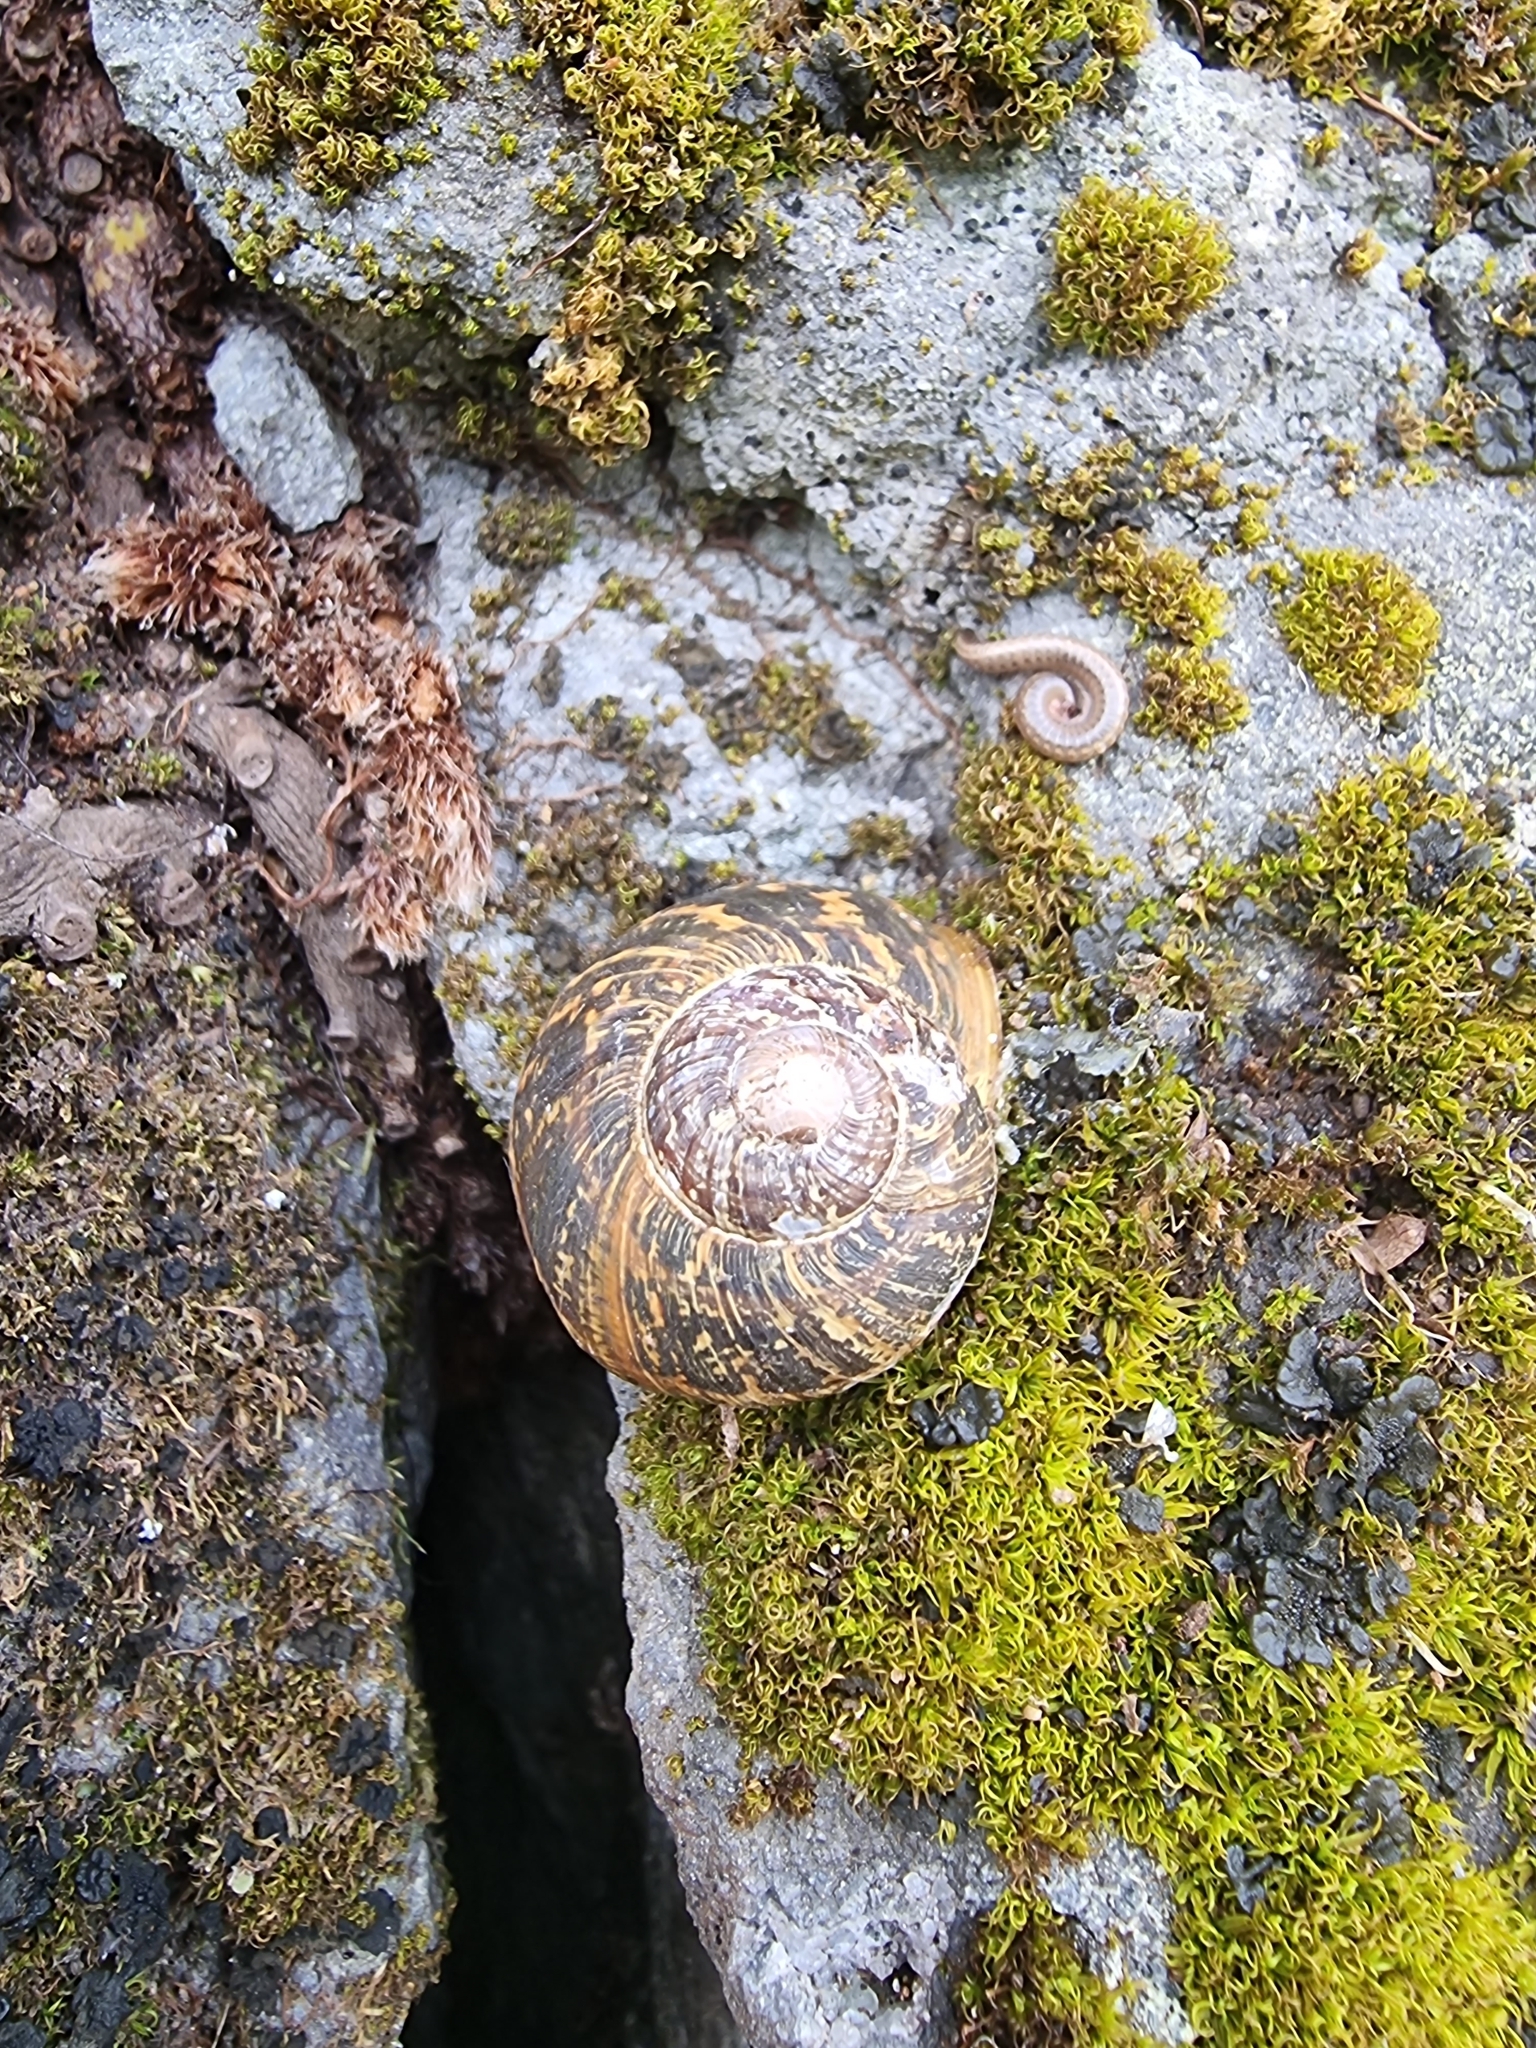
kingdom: Animalia
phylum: Mollusca
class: Gastropoda
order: Stylommatophora
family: Helicidae
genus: Cornu
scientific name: Cornu aspersum
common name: Brown garden snail
